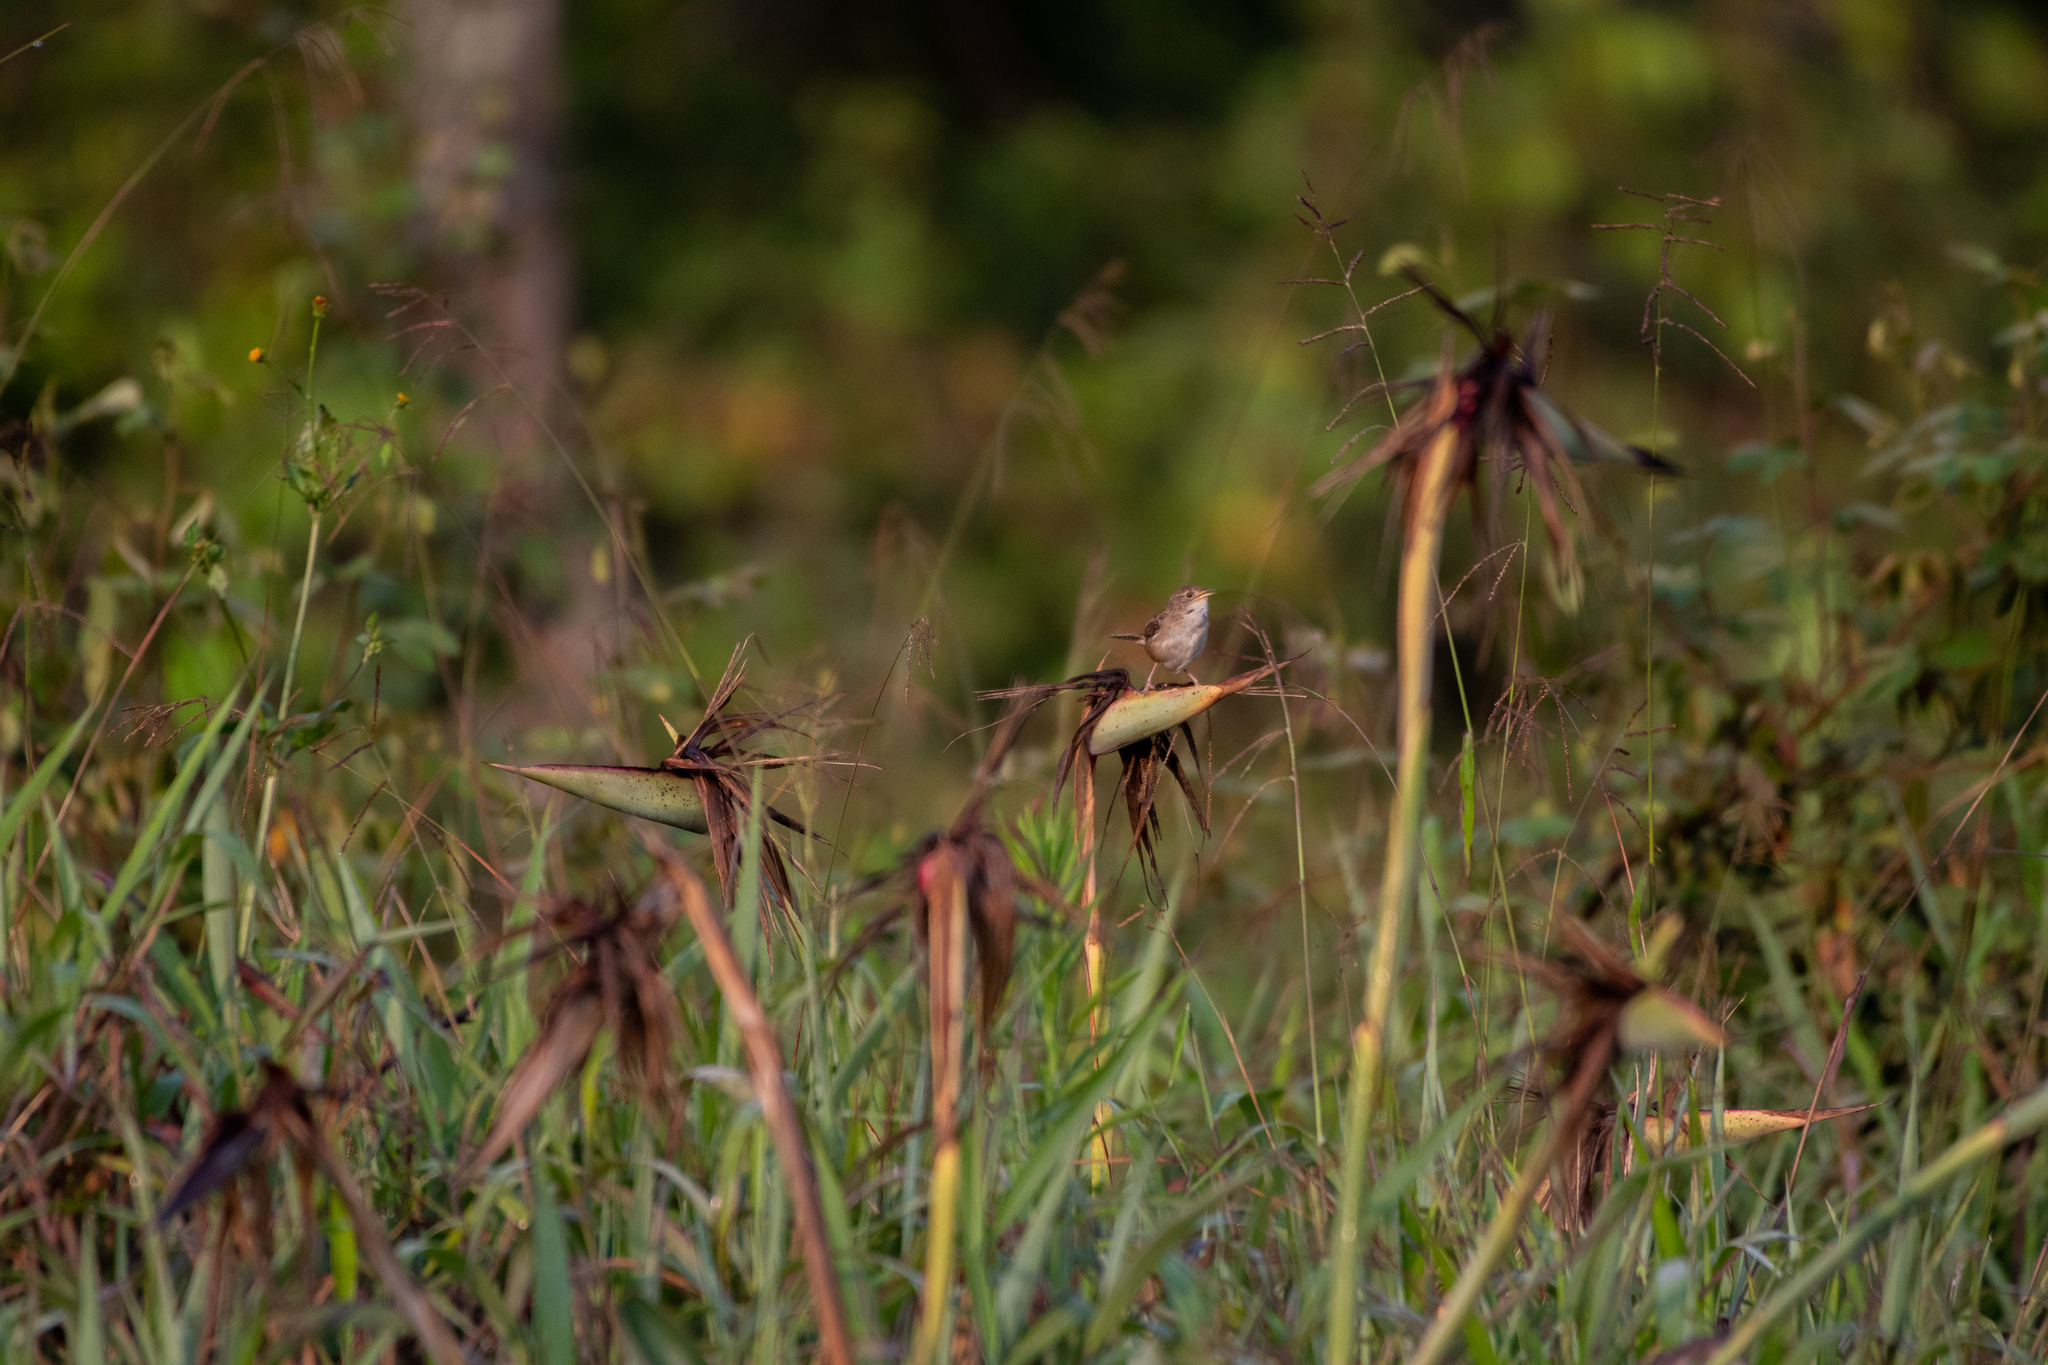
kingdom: Animalia
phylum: Chordata
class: Aves
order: Passeriformes
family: Troglodytidae
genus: Cistothorus
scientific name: Cistothorus platensis
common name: Sedge wren
